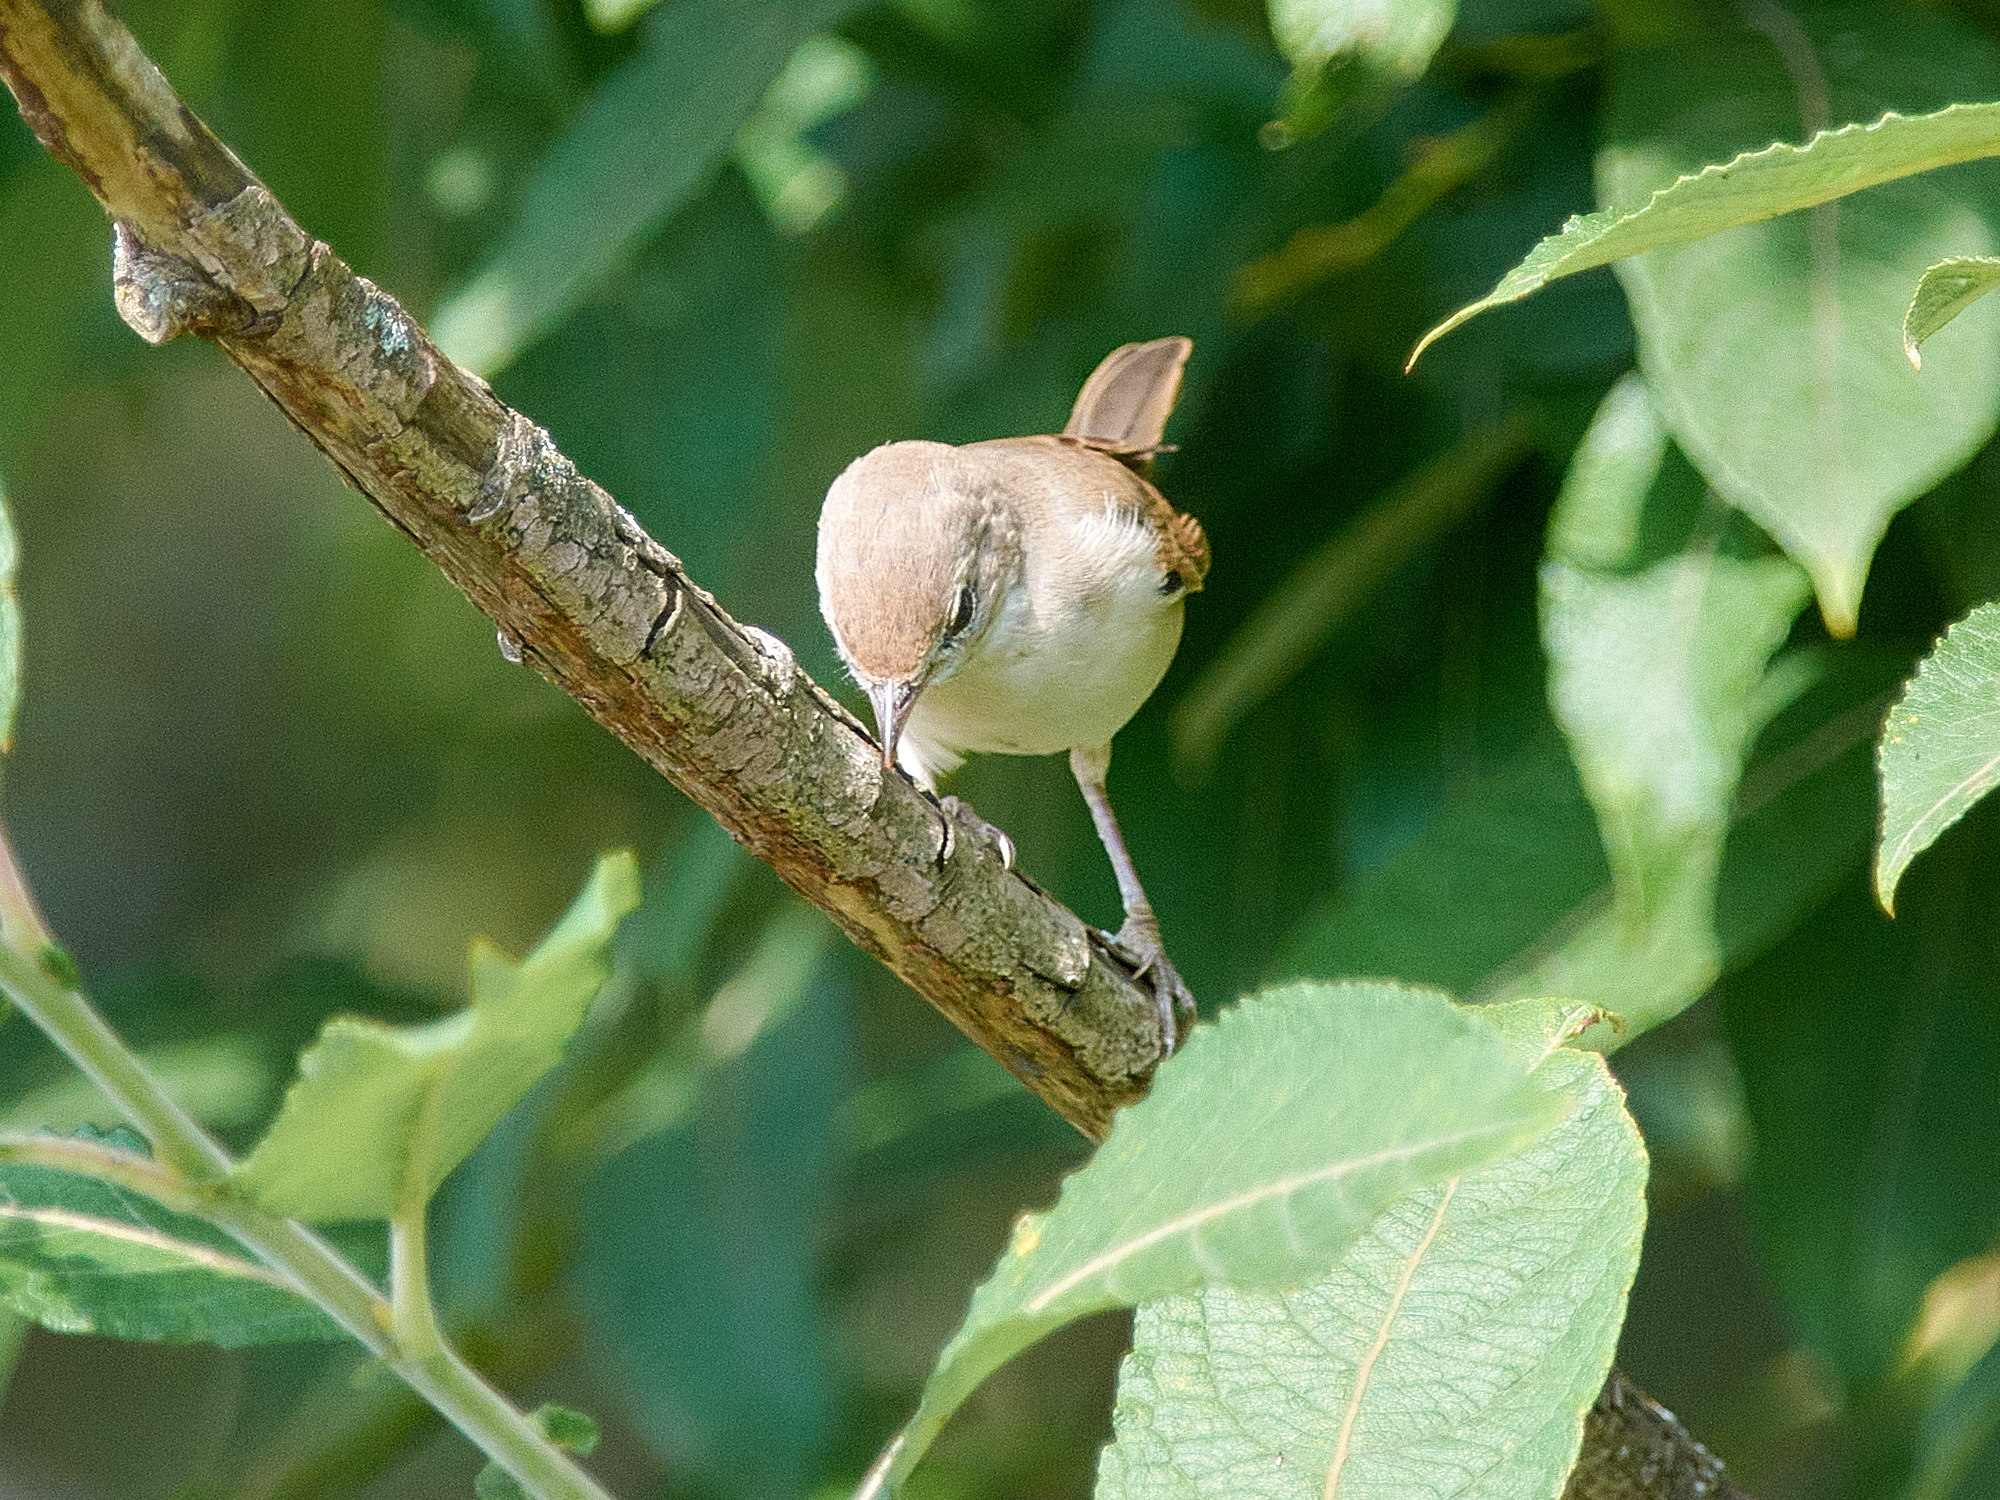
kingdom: Animalia
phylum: Chordata
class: Aves
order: Passeriformes
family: Sylviidae
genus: Sylvia
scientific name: Sylvia communis
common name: Common whitethroat
